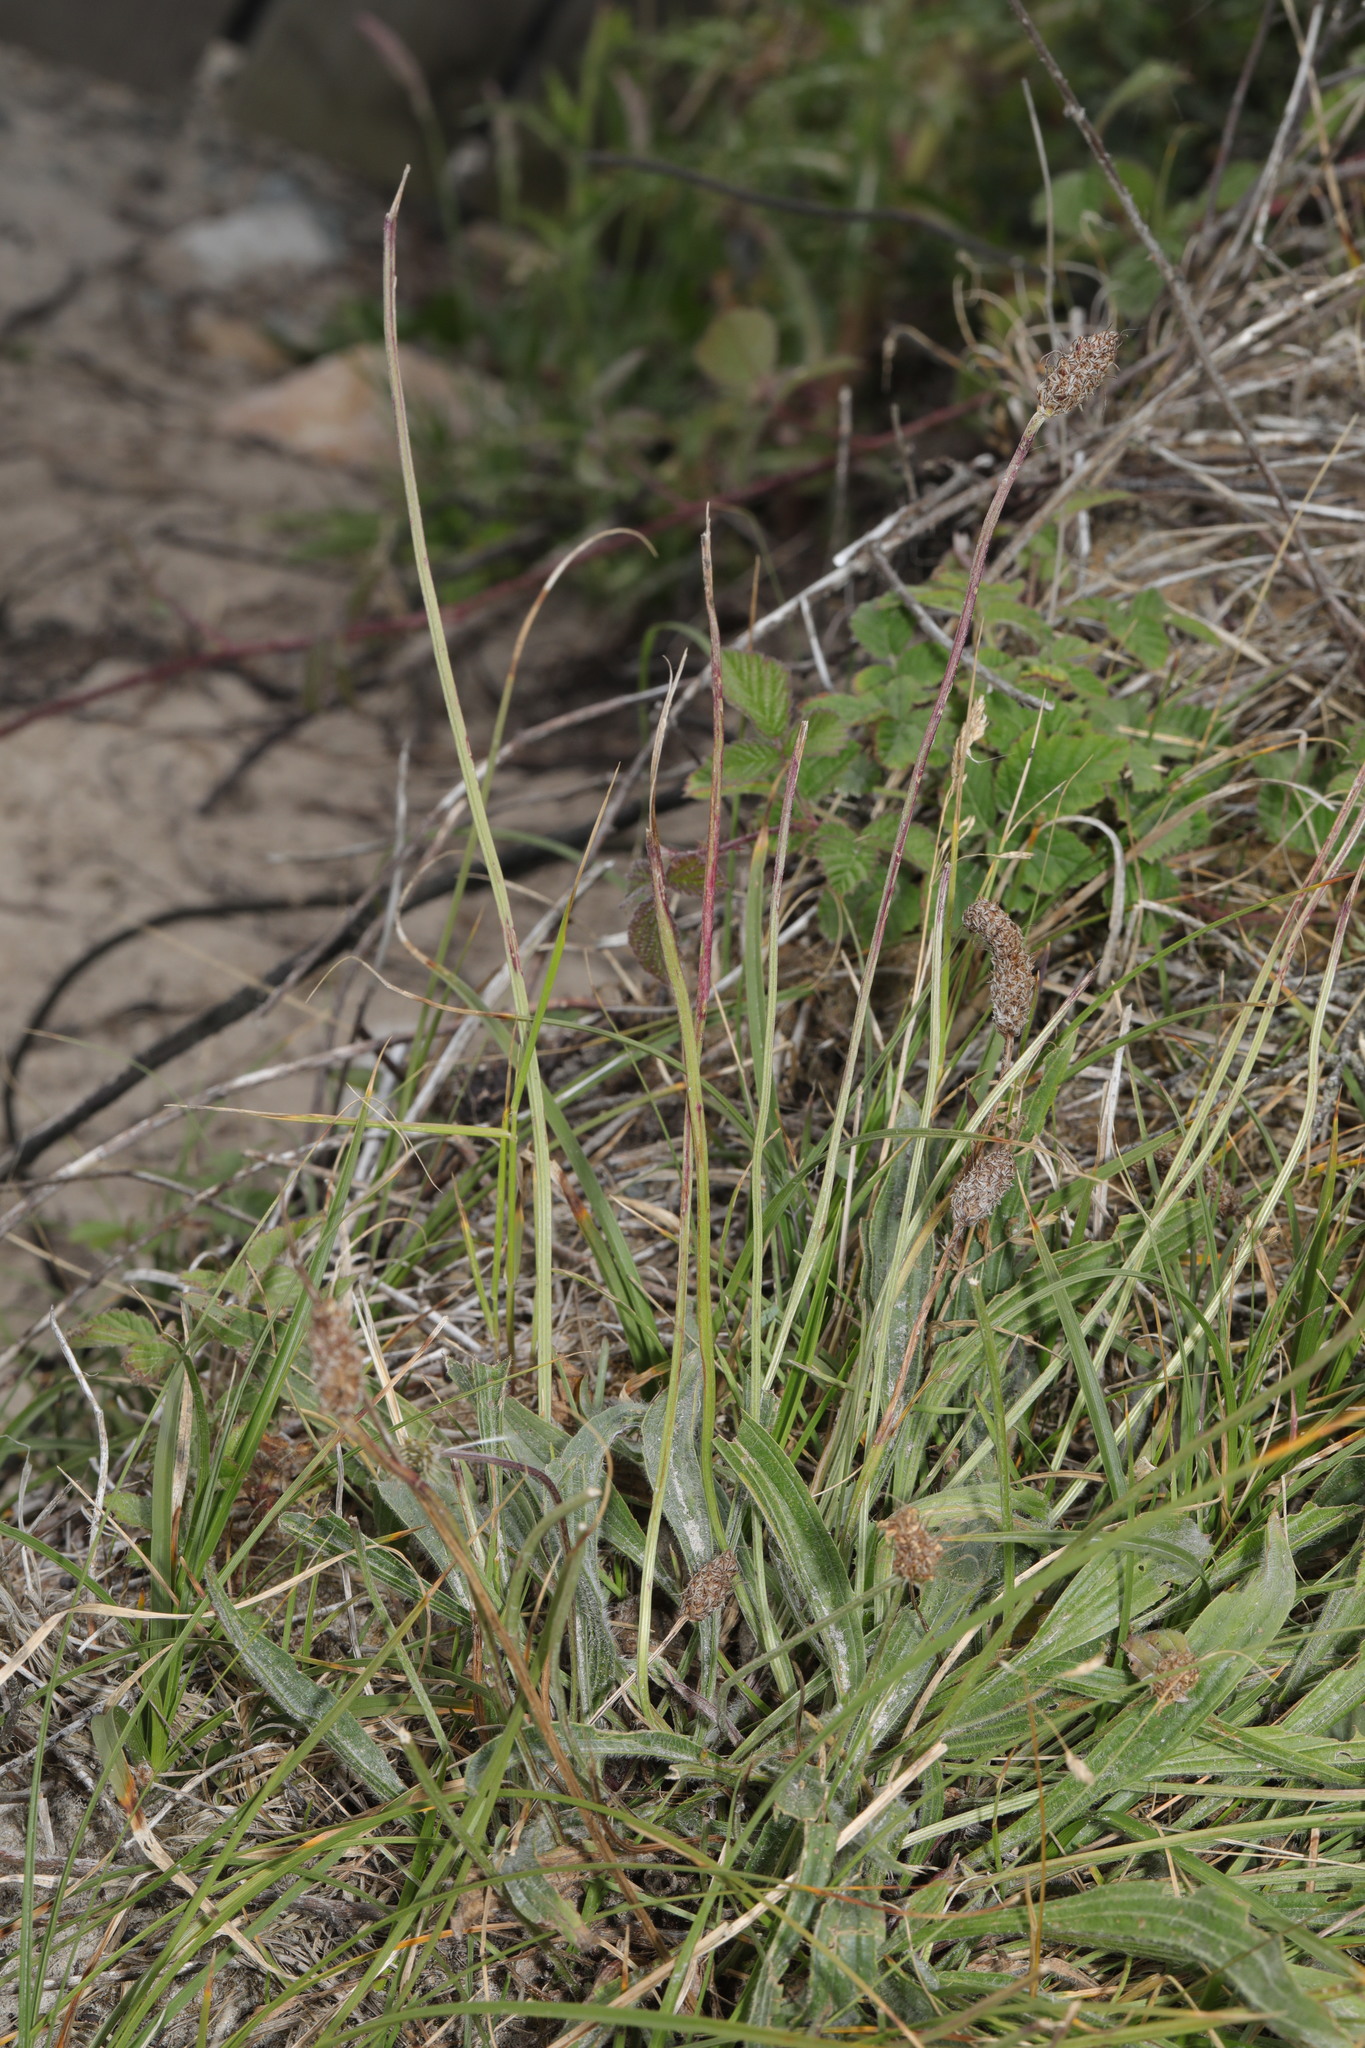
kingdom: Plantae
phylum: Tracheophyta
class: Magnoliopsida
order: Lamiales
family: Plantaginaceae
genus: Plantago
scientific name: Plantago lanceolata
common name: Ribwort plantain
